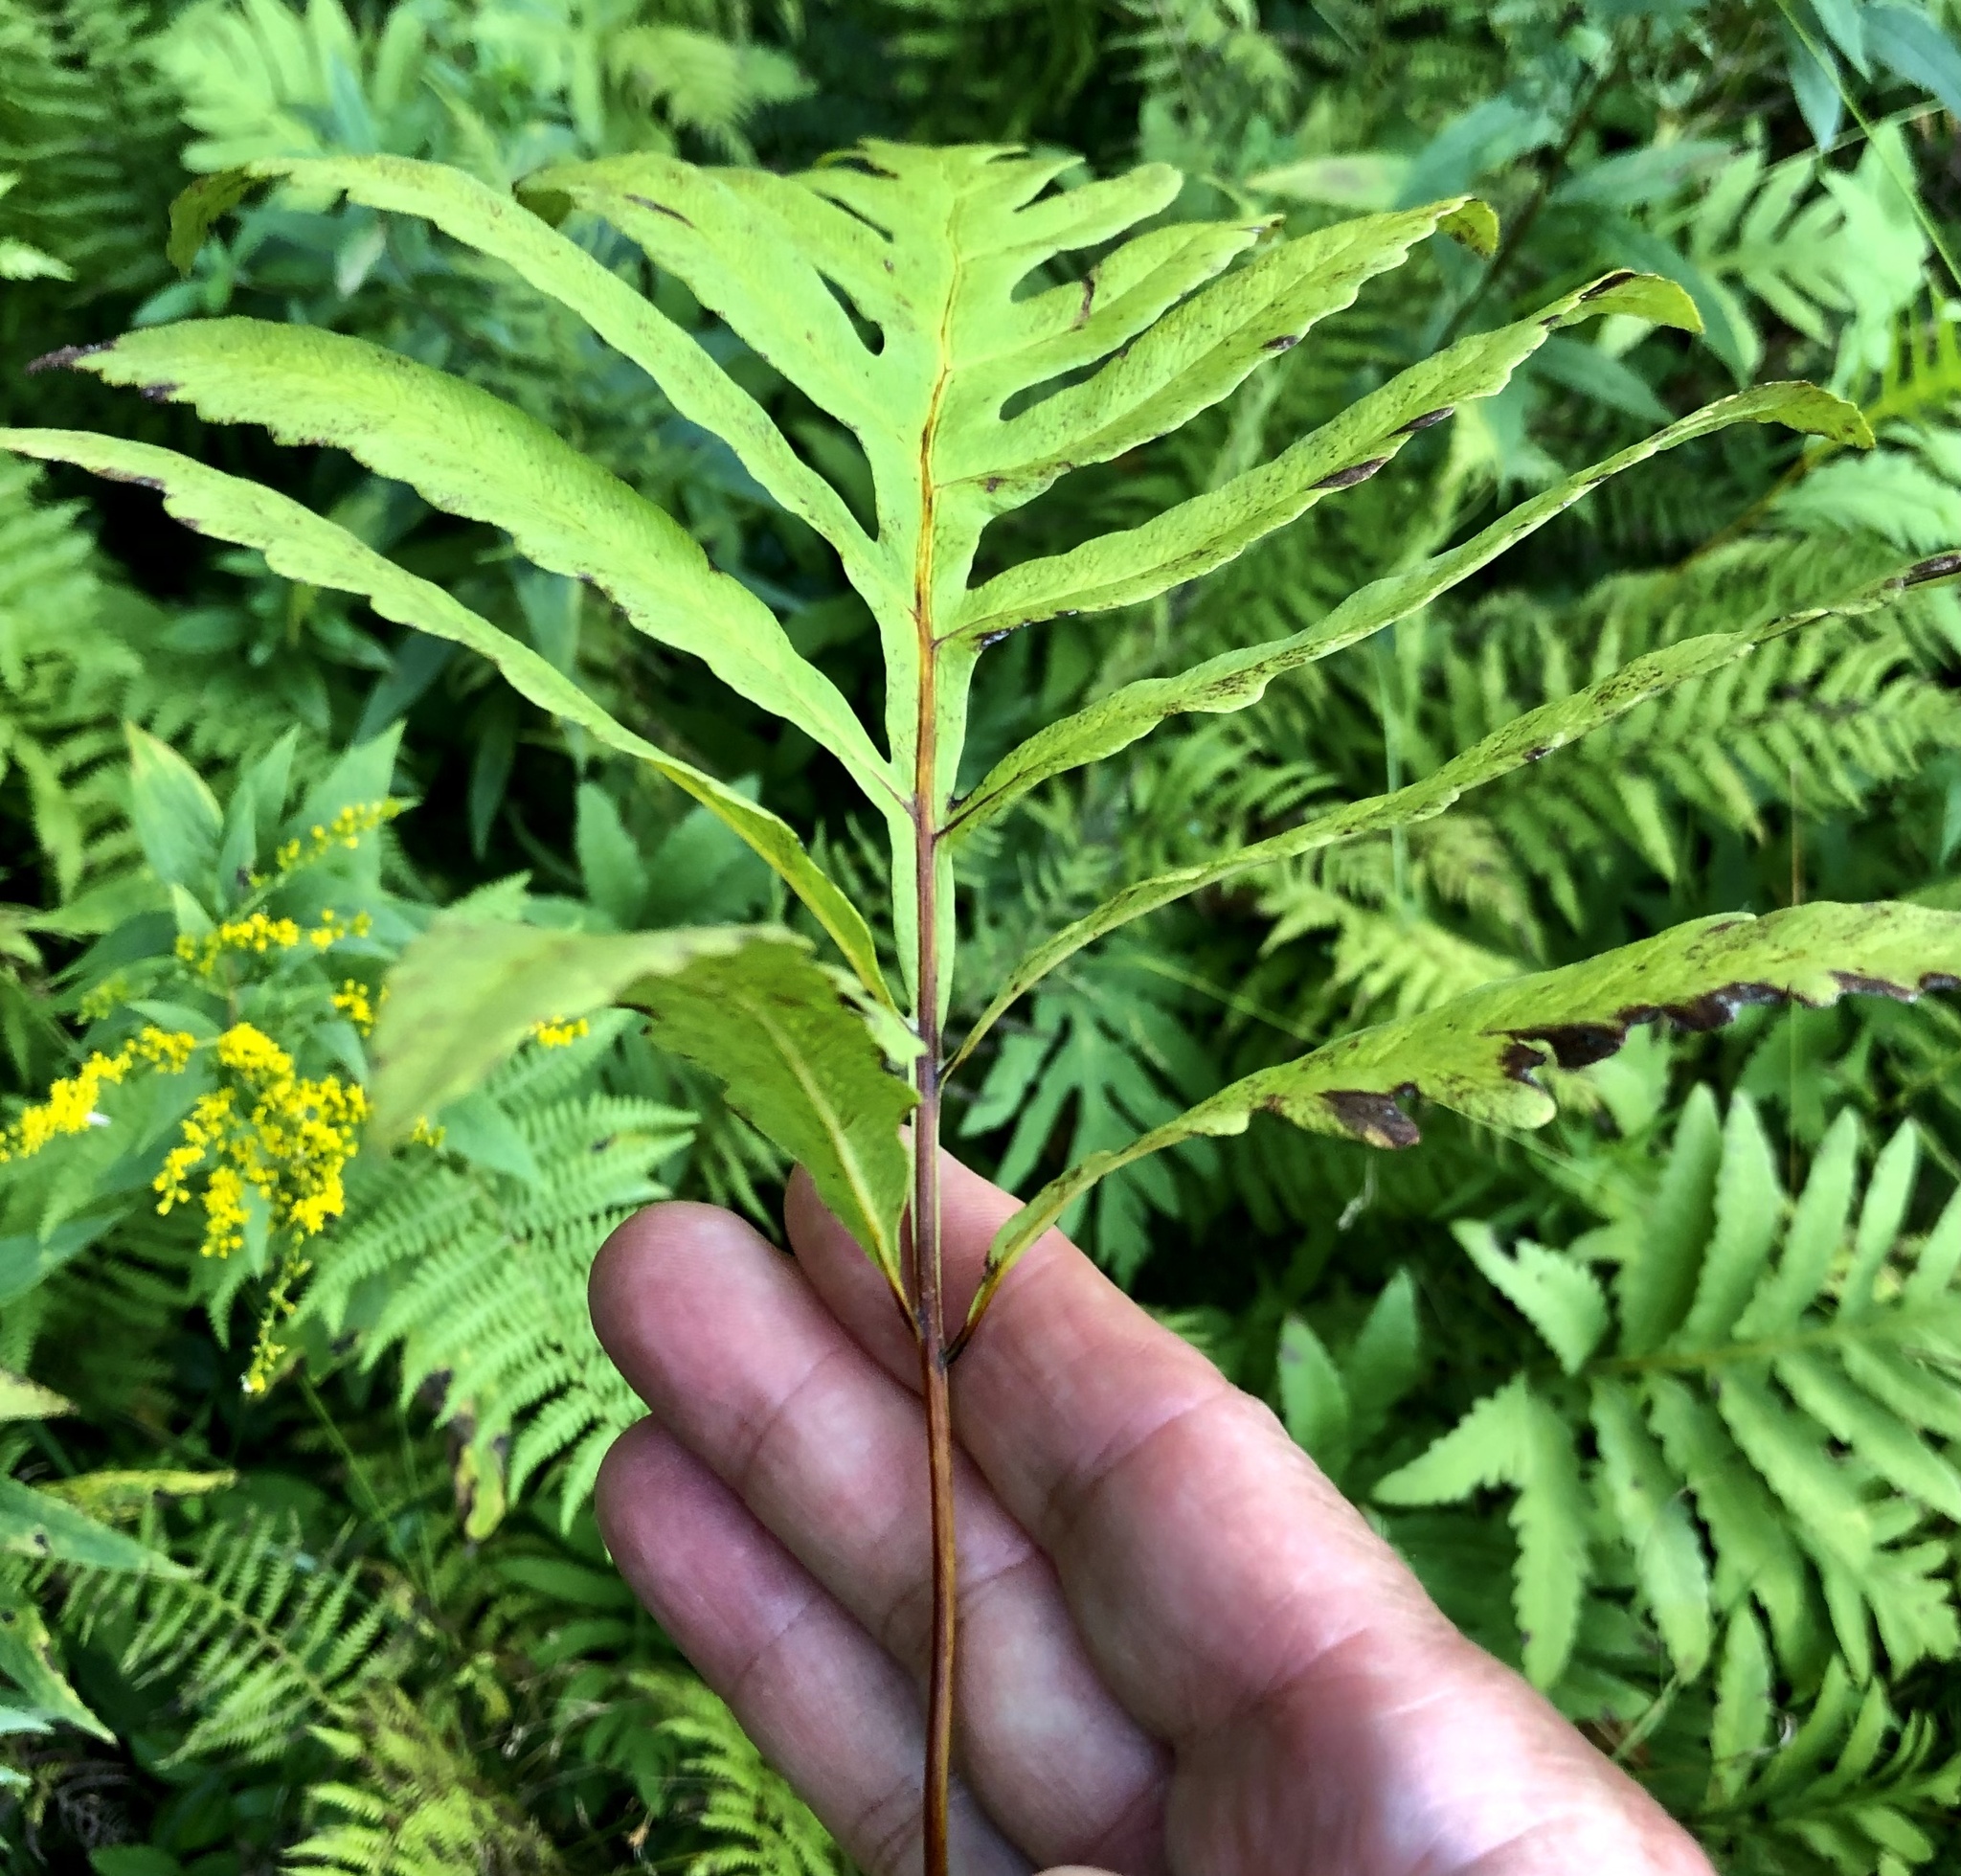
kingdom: Plantae
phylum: Tracheophyta
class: Polypodiopsida
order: Polypodiales
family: Onocleaceae
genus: Onoclea
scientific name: Onoclea sensibilis
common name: Sensitive fern
